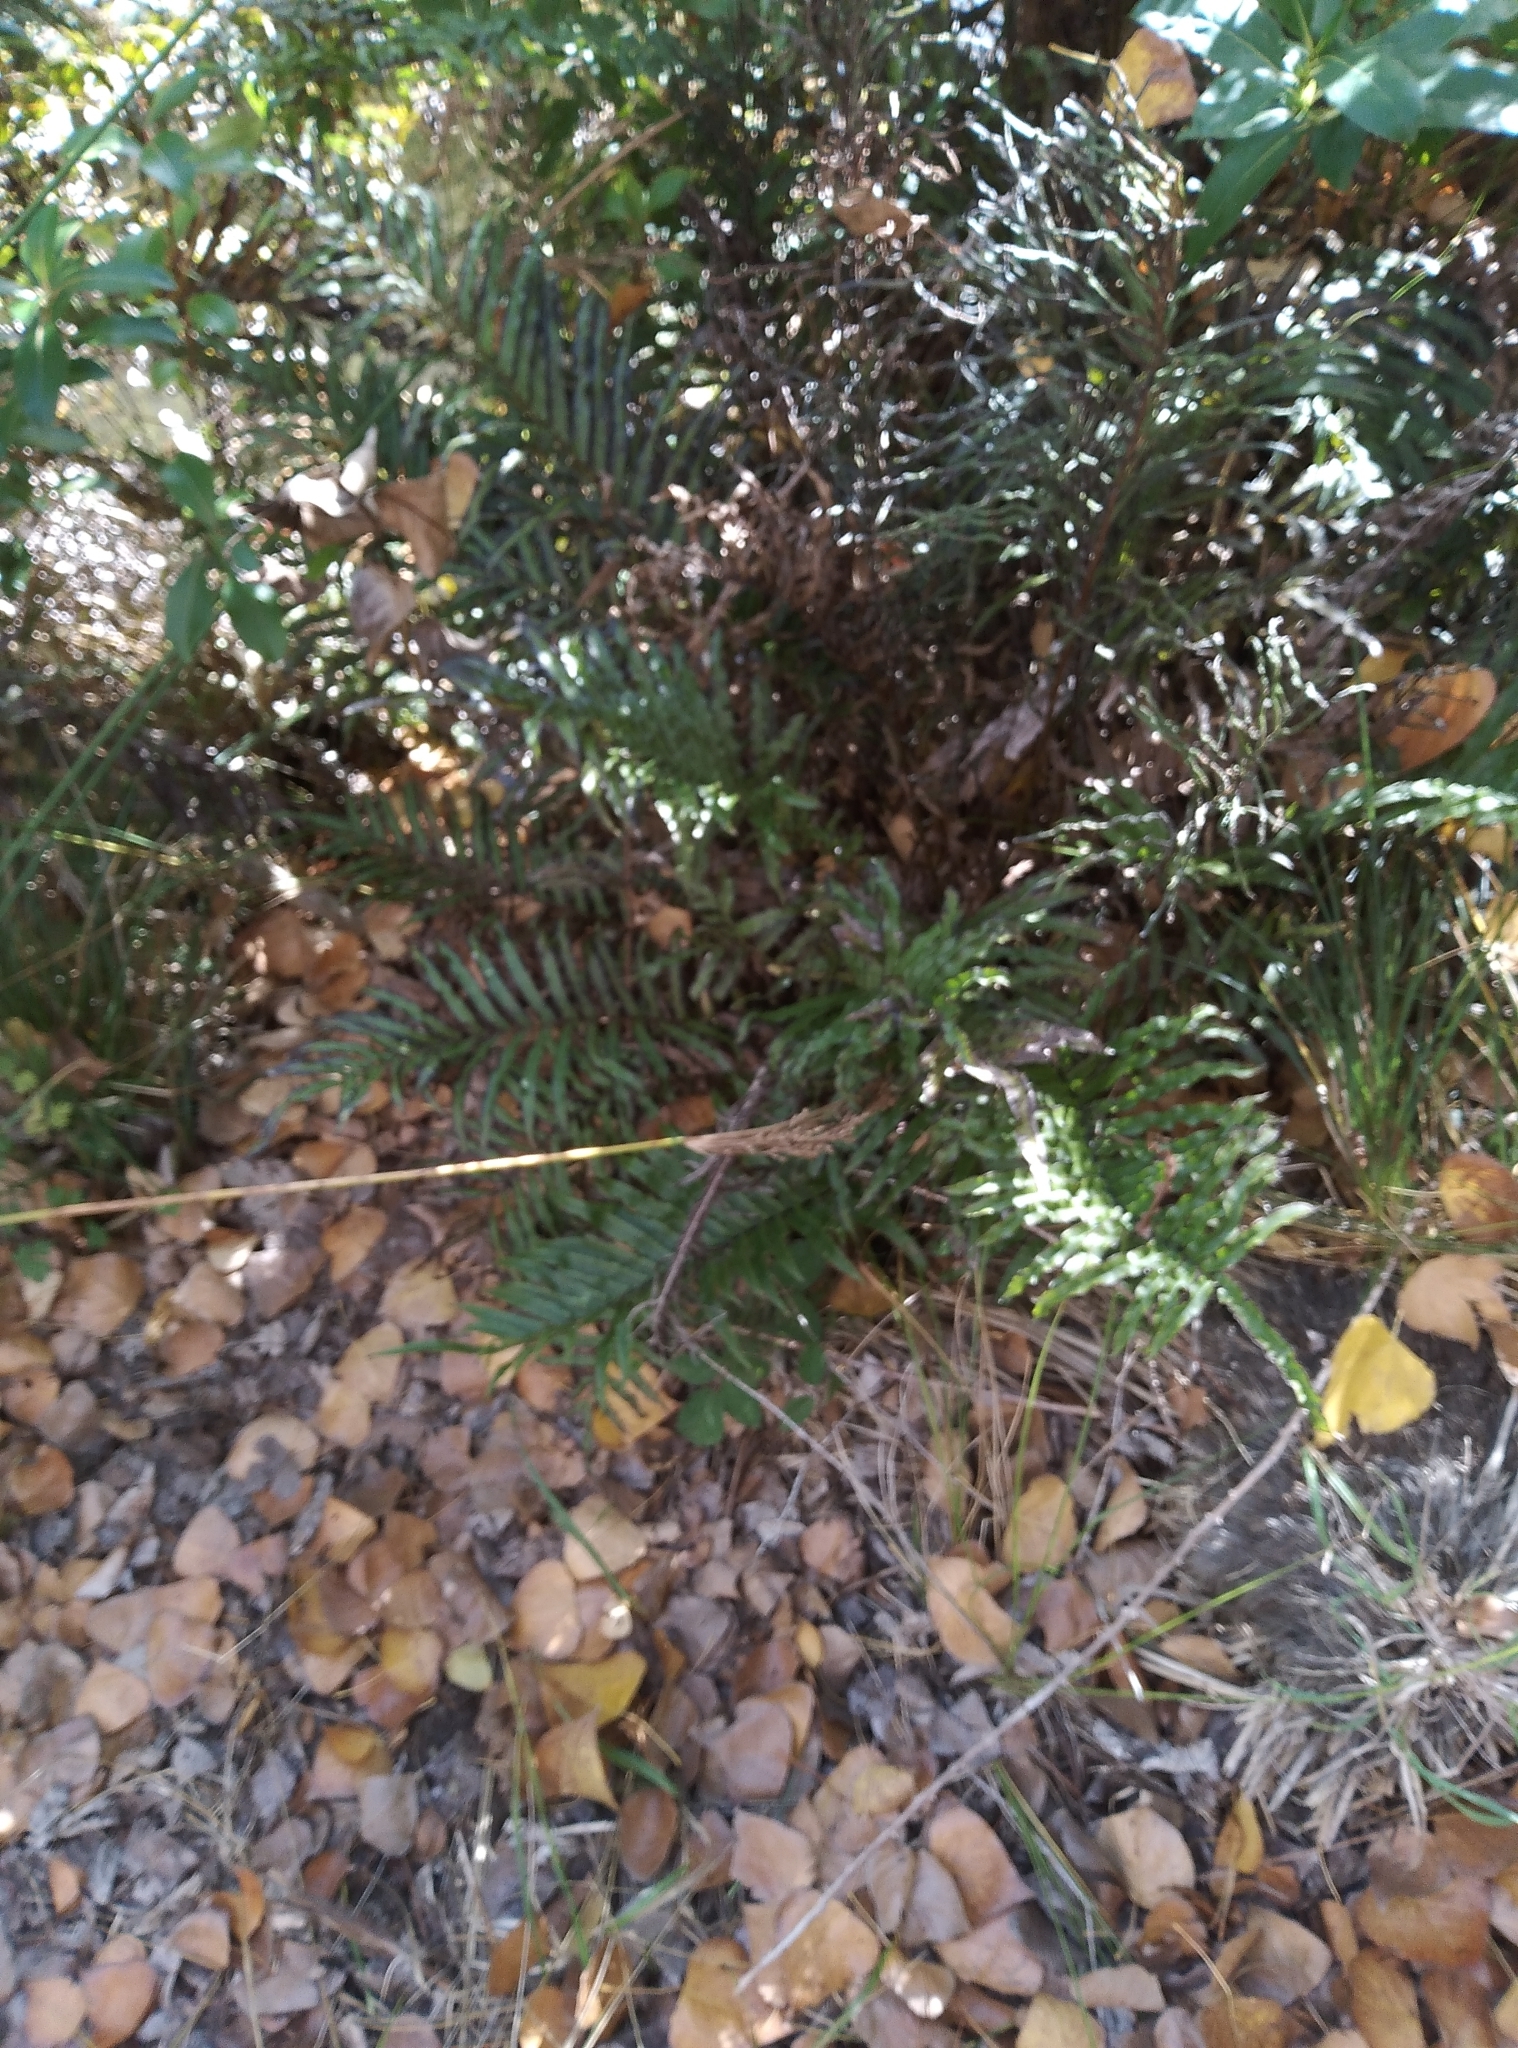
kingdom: Plantae
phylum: Tracheophyta
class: Polypodiopsida
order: Polypodiales
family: Blechnaceae
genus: Parablechnum
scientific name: Parablechnum minus
